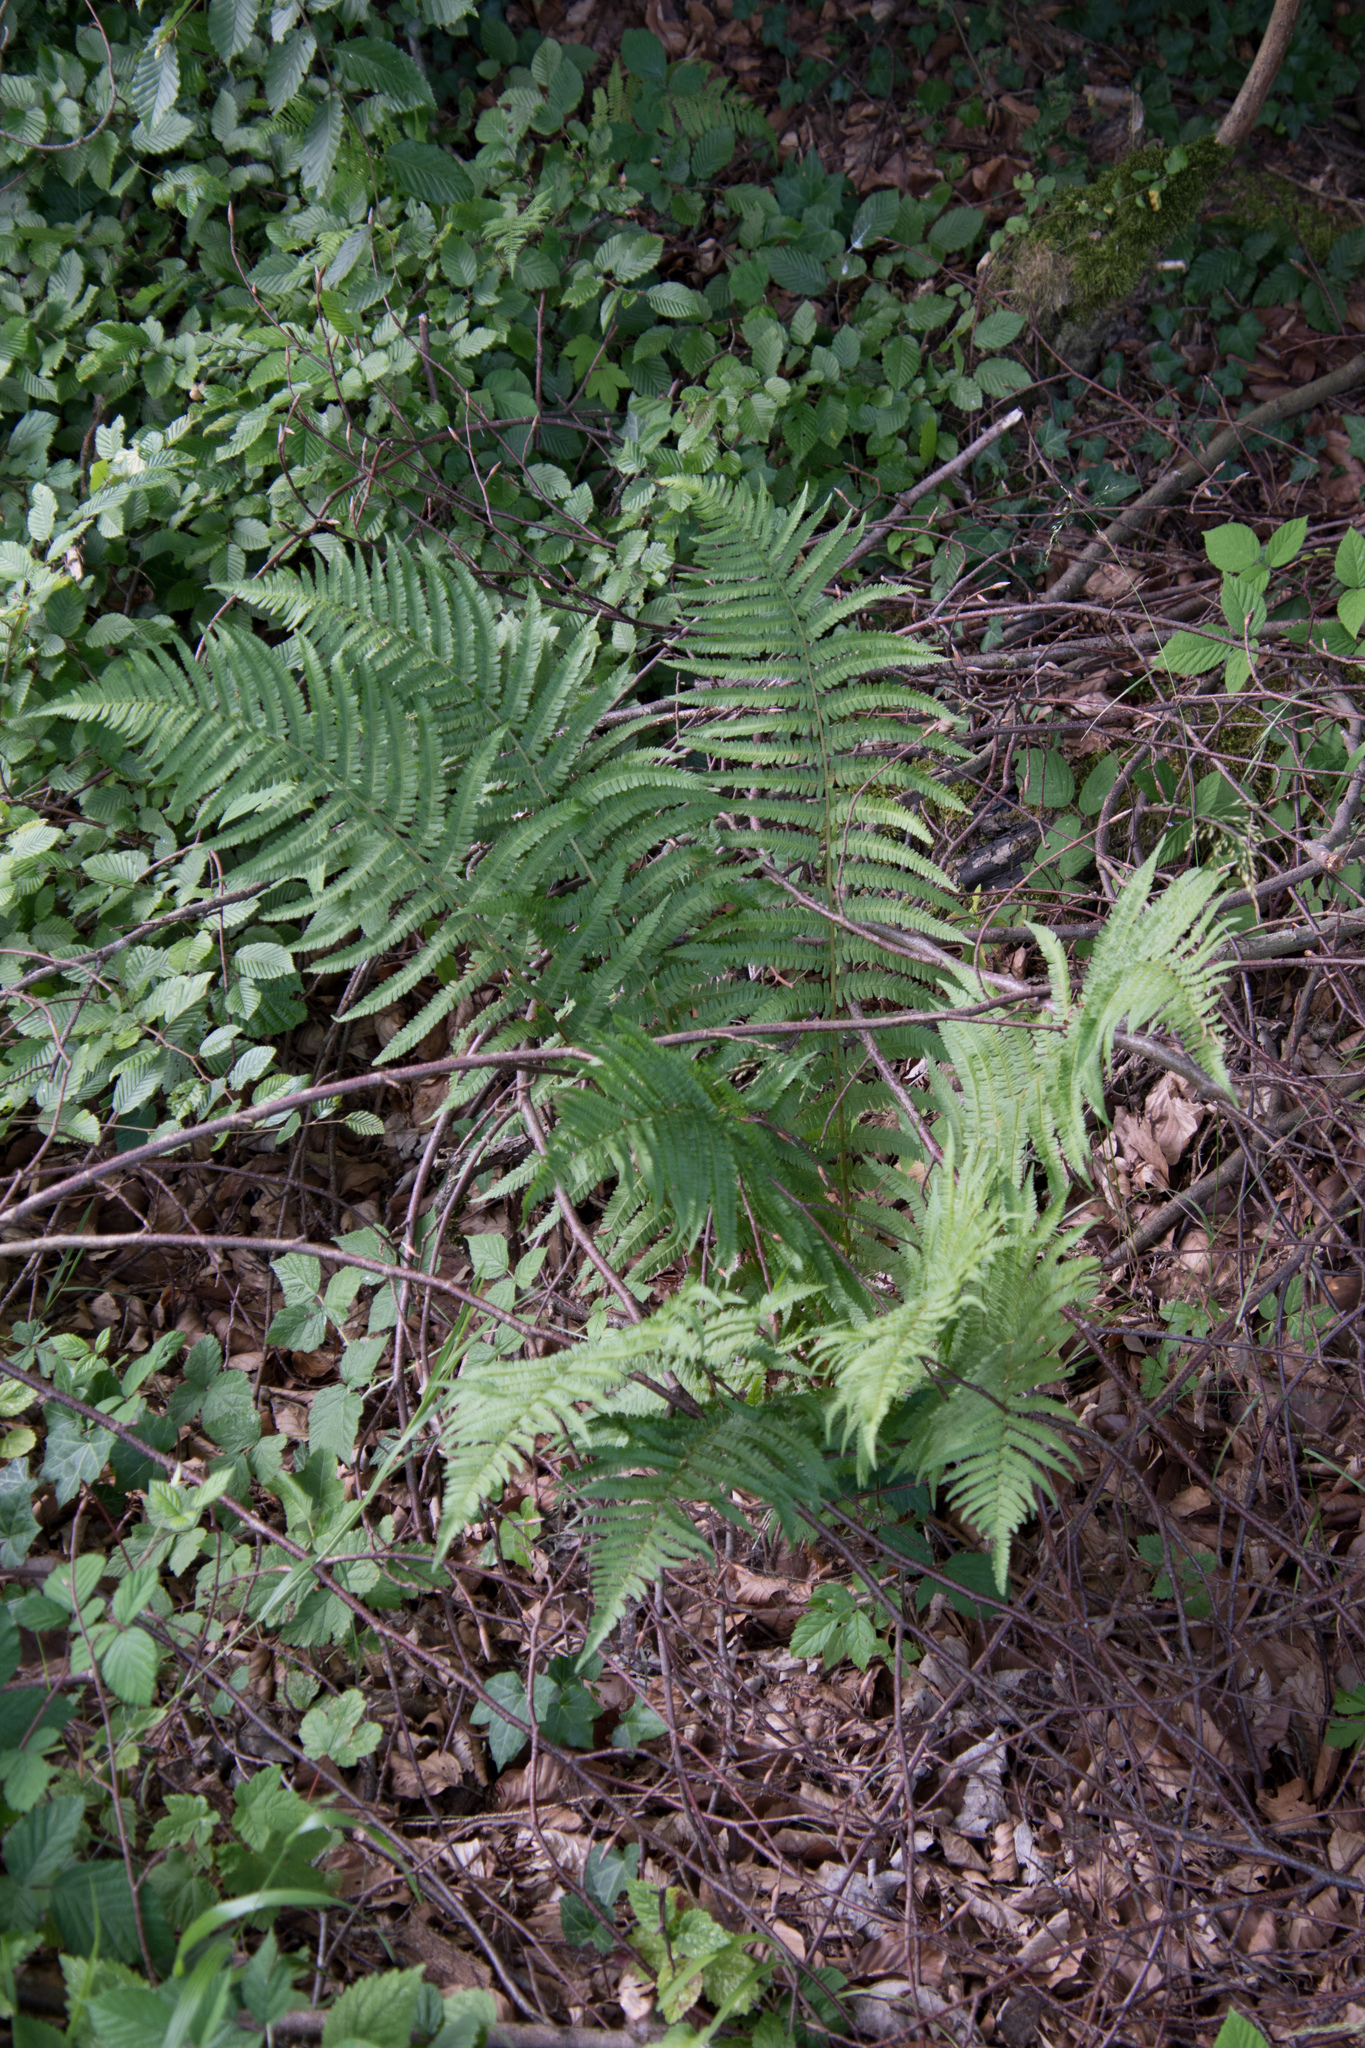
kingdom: Plantae
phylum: Tracheophyta
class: Polypodiopsida
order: Polypodiales
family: Dryopteridaceae
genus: Dryopteris
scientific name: Dryopteris filix-mas
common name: Male fern
